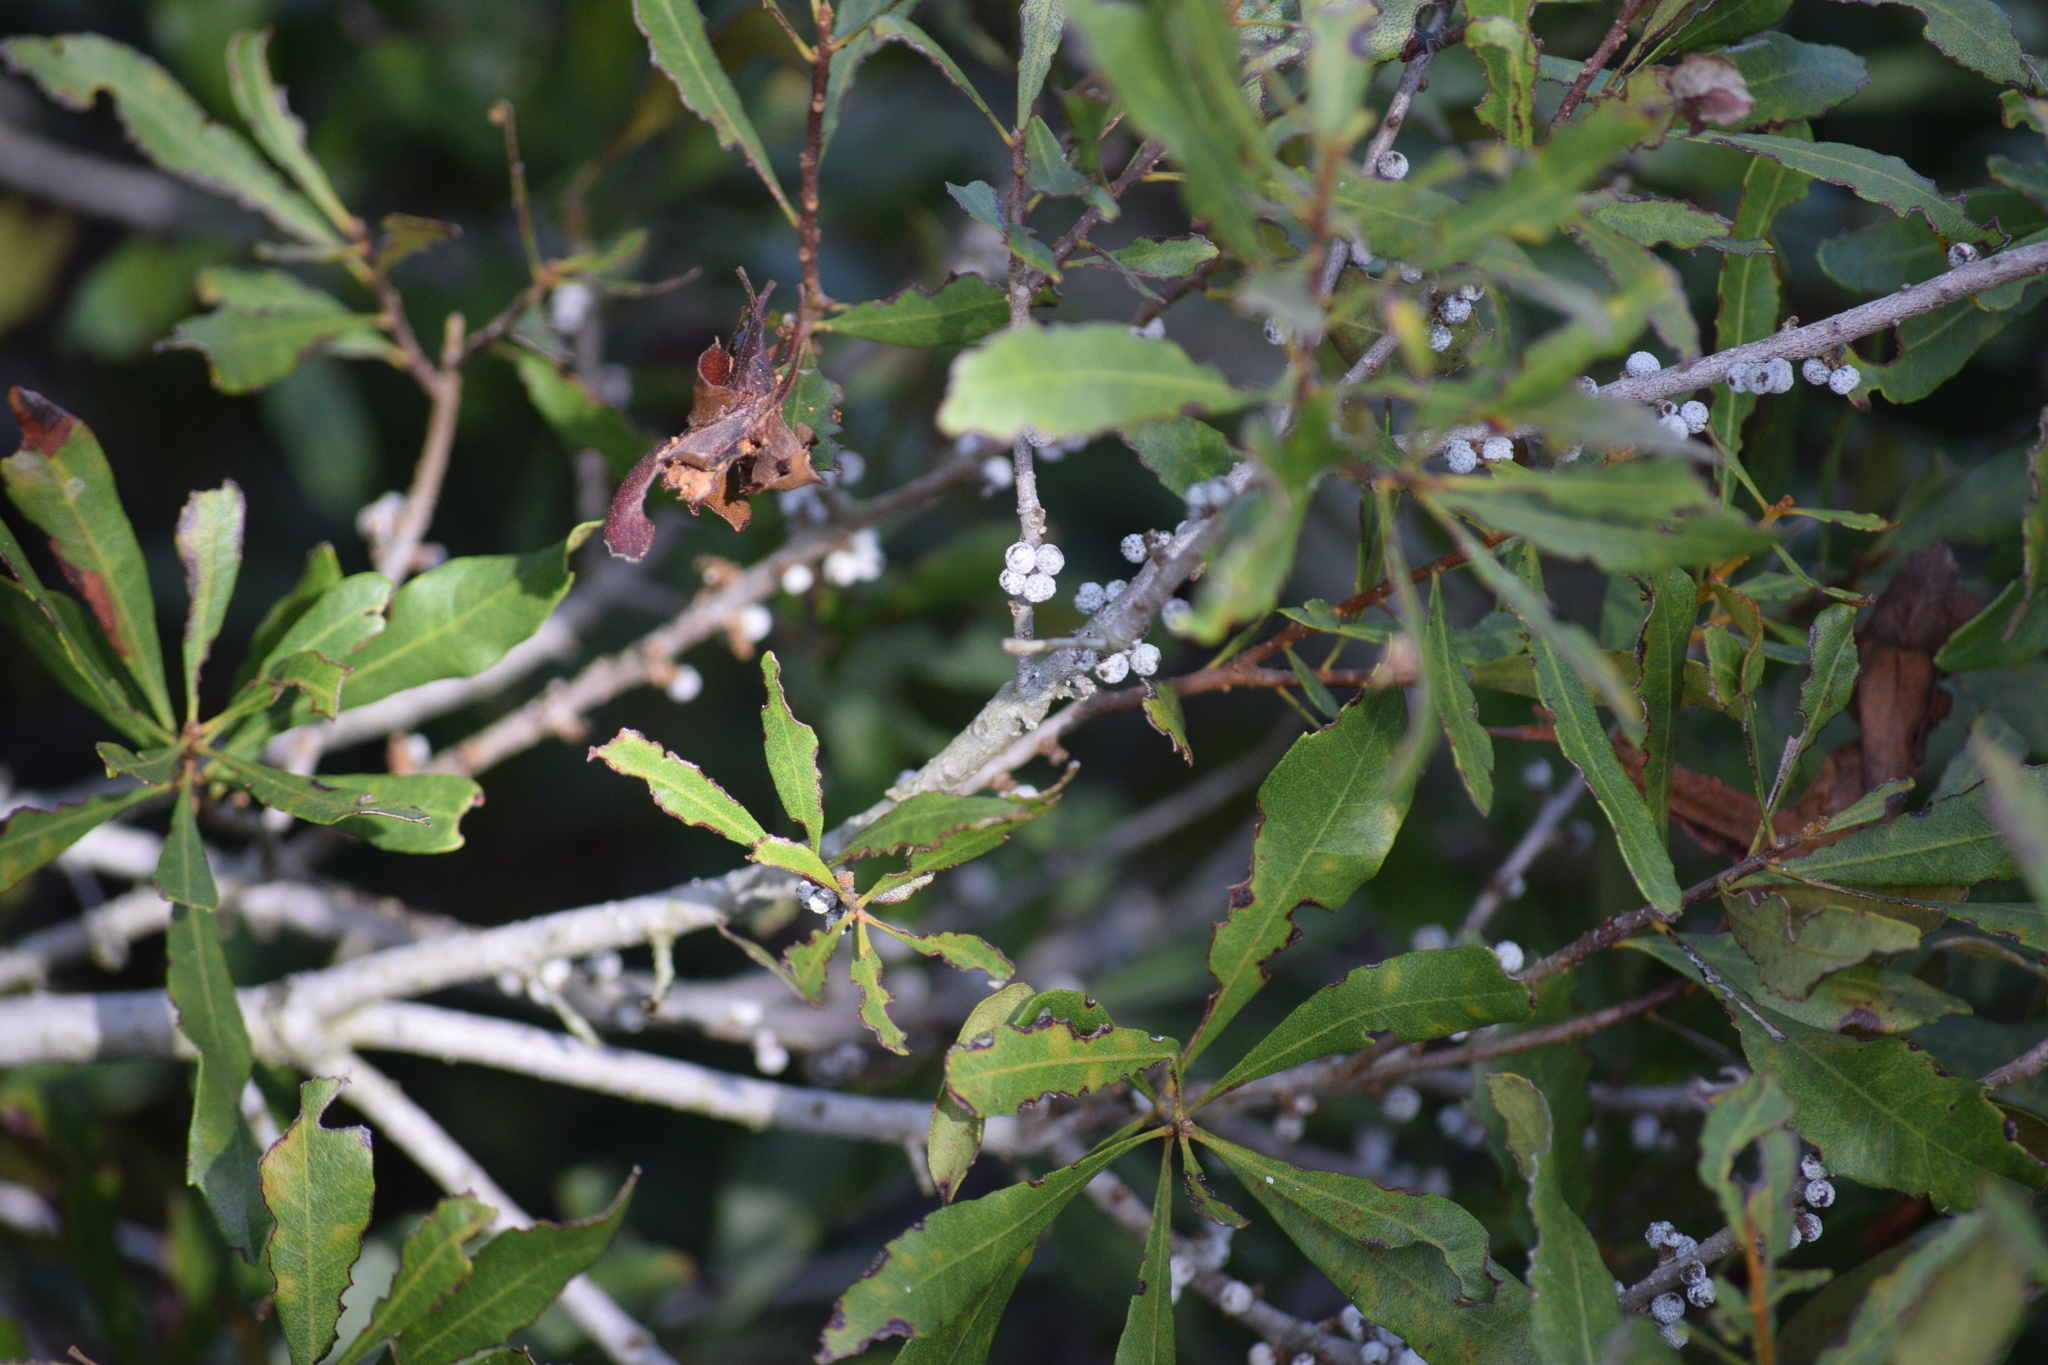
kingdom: Plantae
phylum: Tracheophyta
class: Magnoliopsida
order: Fagales
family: Myricaceae
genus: Morella
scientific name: Morella cerifera
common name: Wax myrtle
